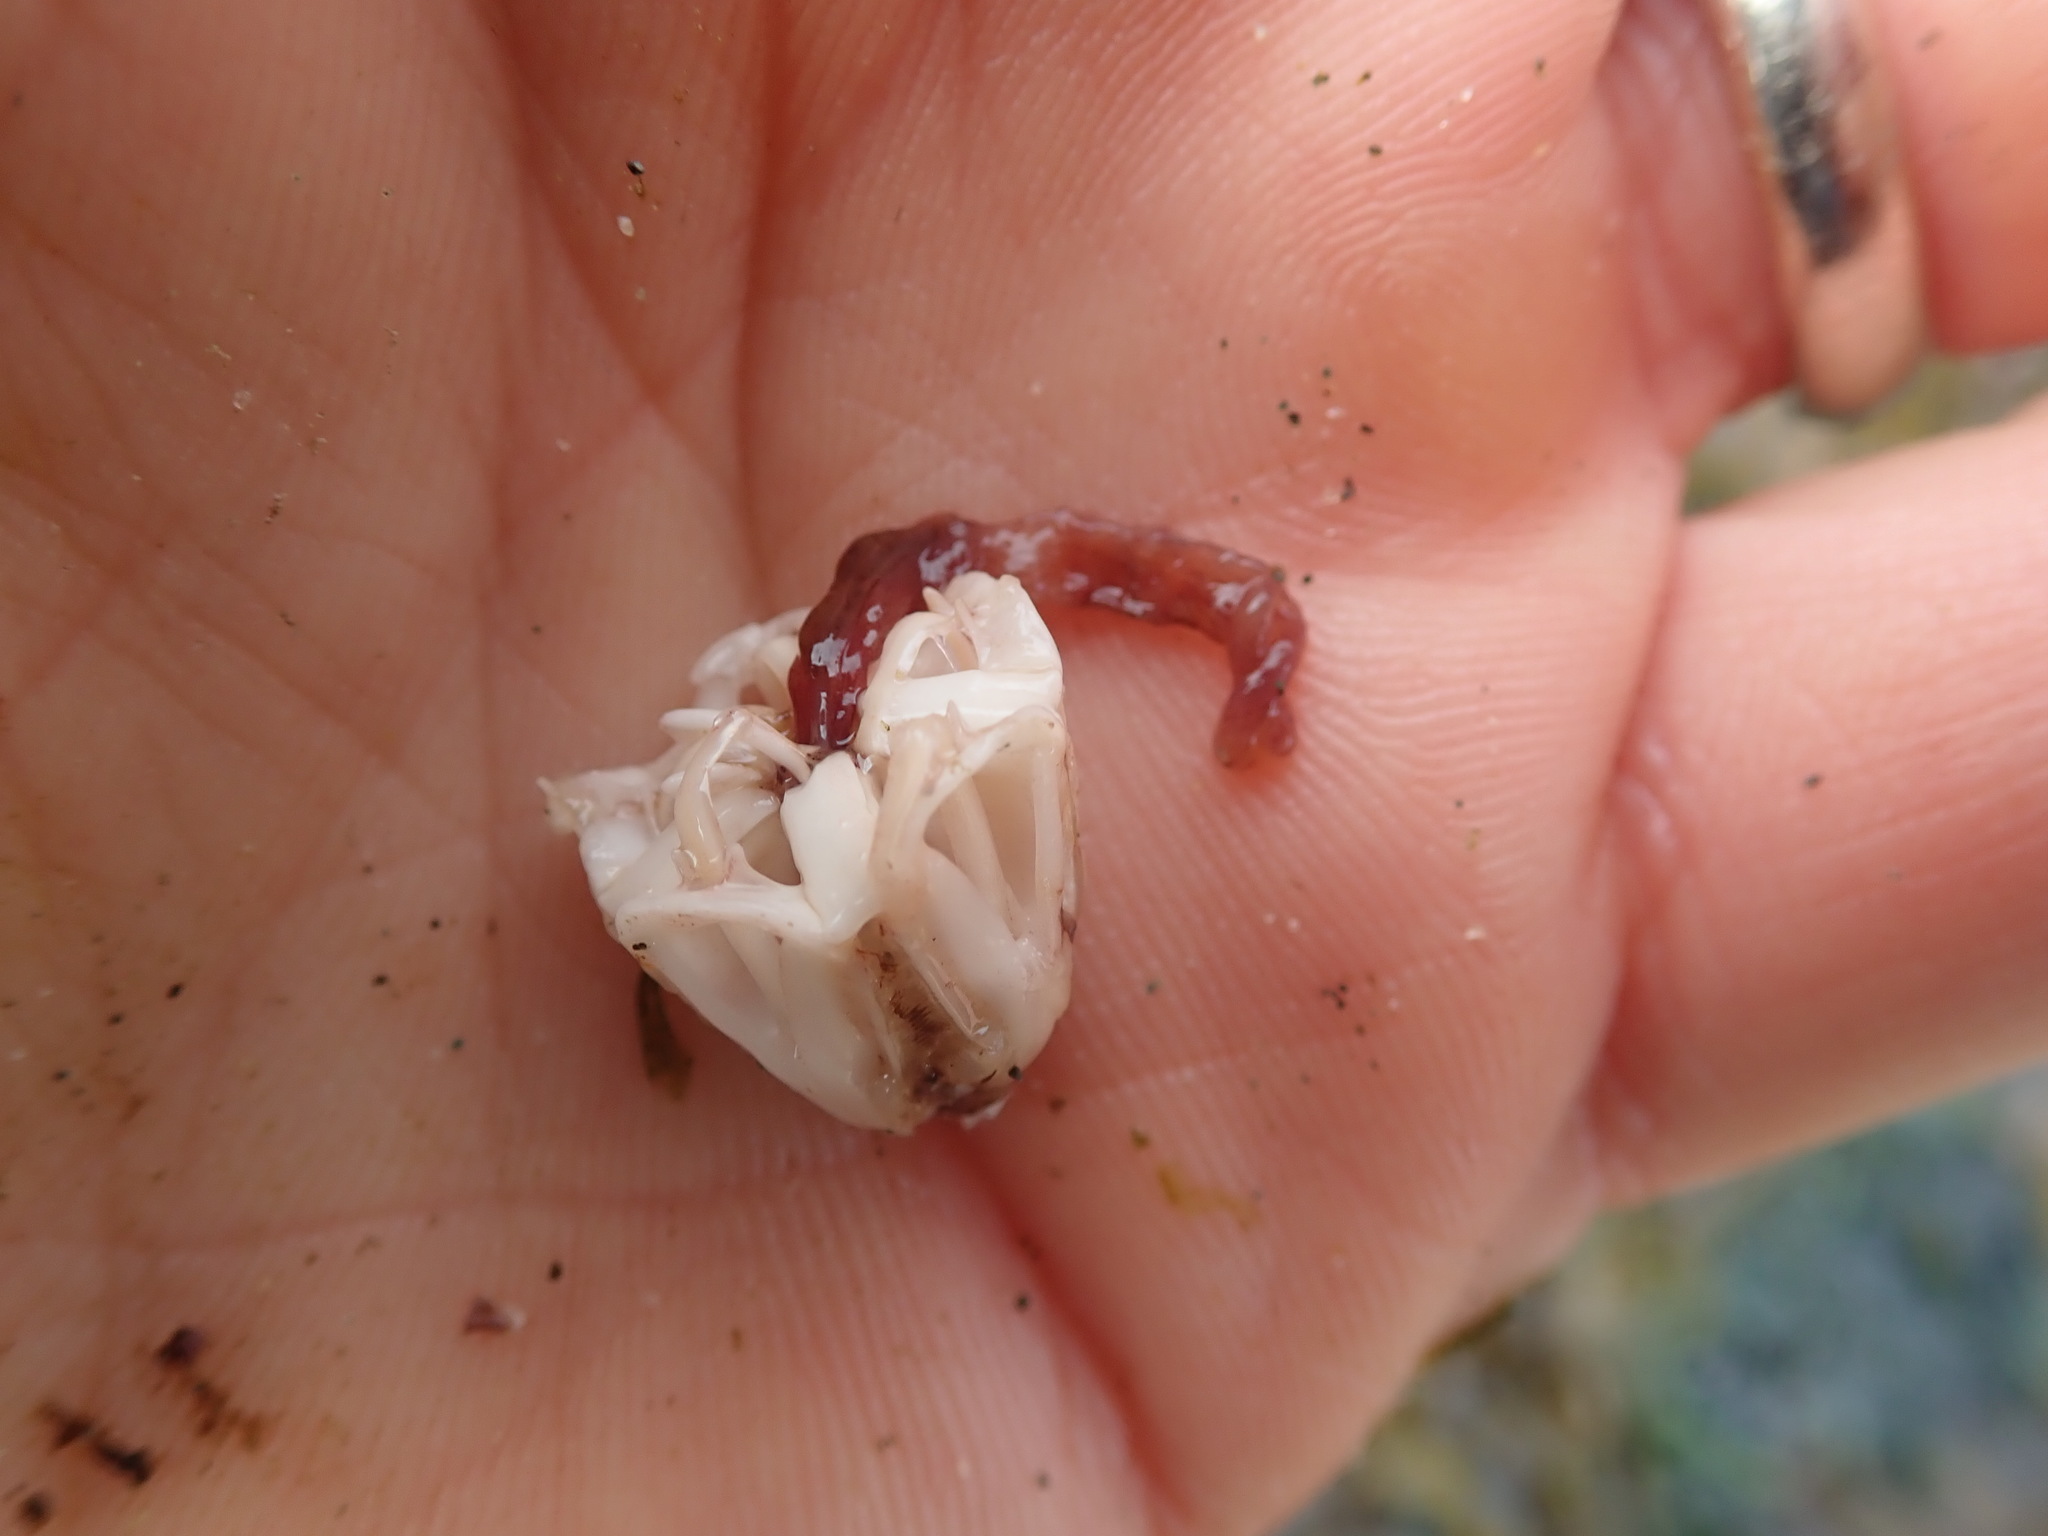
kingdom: Animalia
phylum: Echinodermata
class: Echinoidea
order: Camarodonta
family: Strongylocentrotidae
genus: Mesocentrotus
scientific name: Mesocentrotus franciscanus
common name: Red sea urchin
